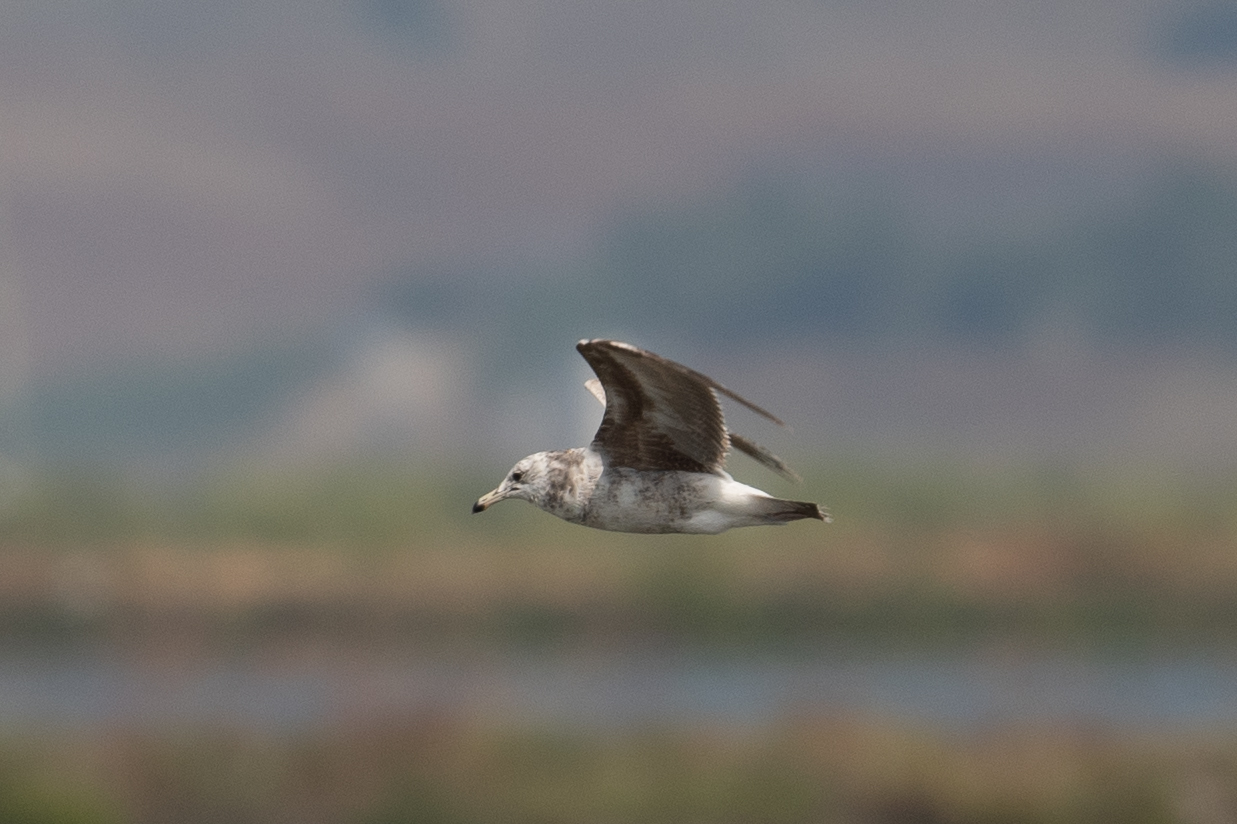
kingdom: Animalia
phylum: Chordata
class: Aves
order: Charadriiformes
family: Laridae
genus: Larus
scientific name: Larus californicus
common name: California gull
